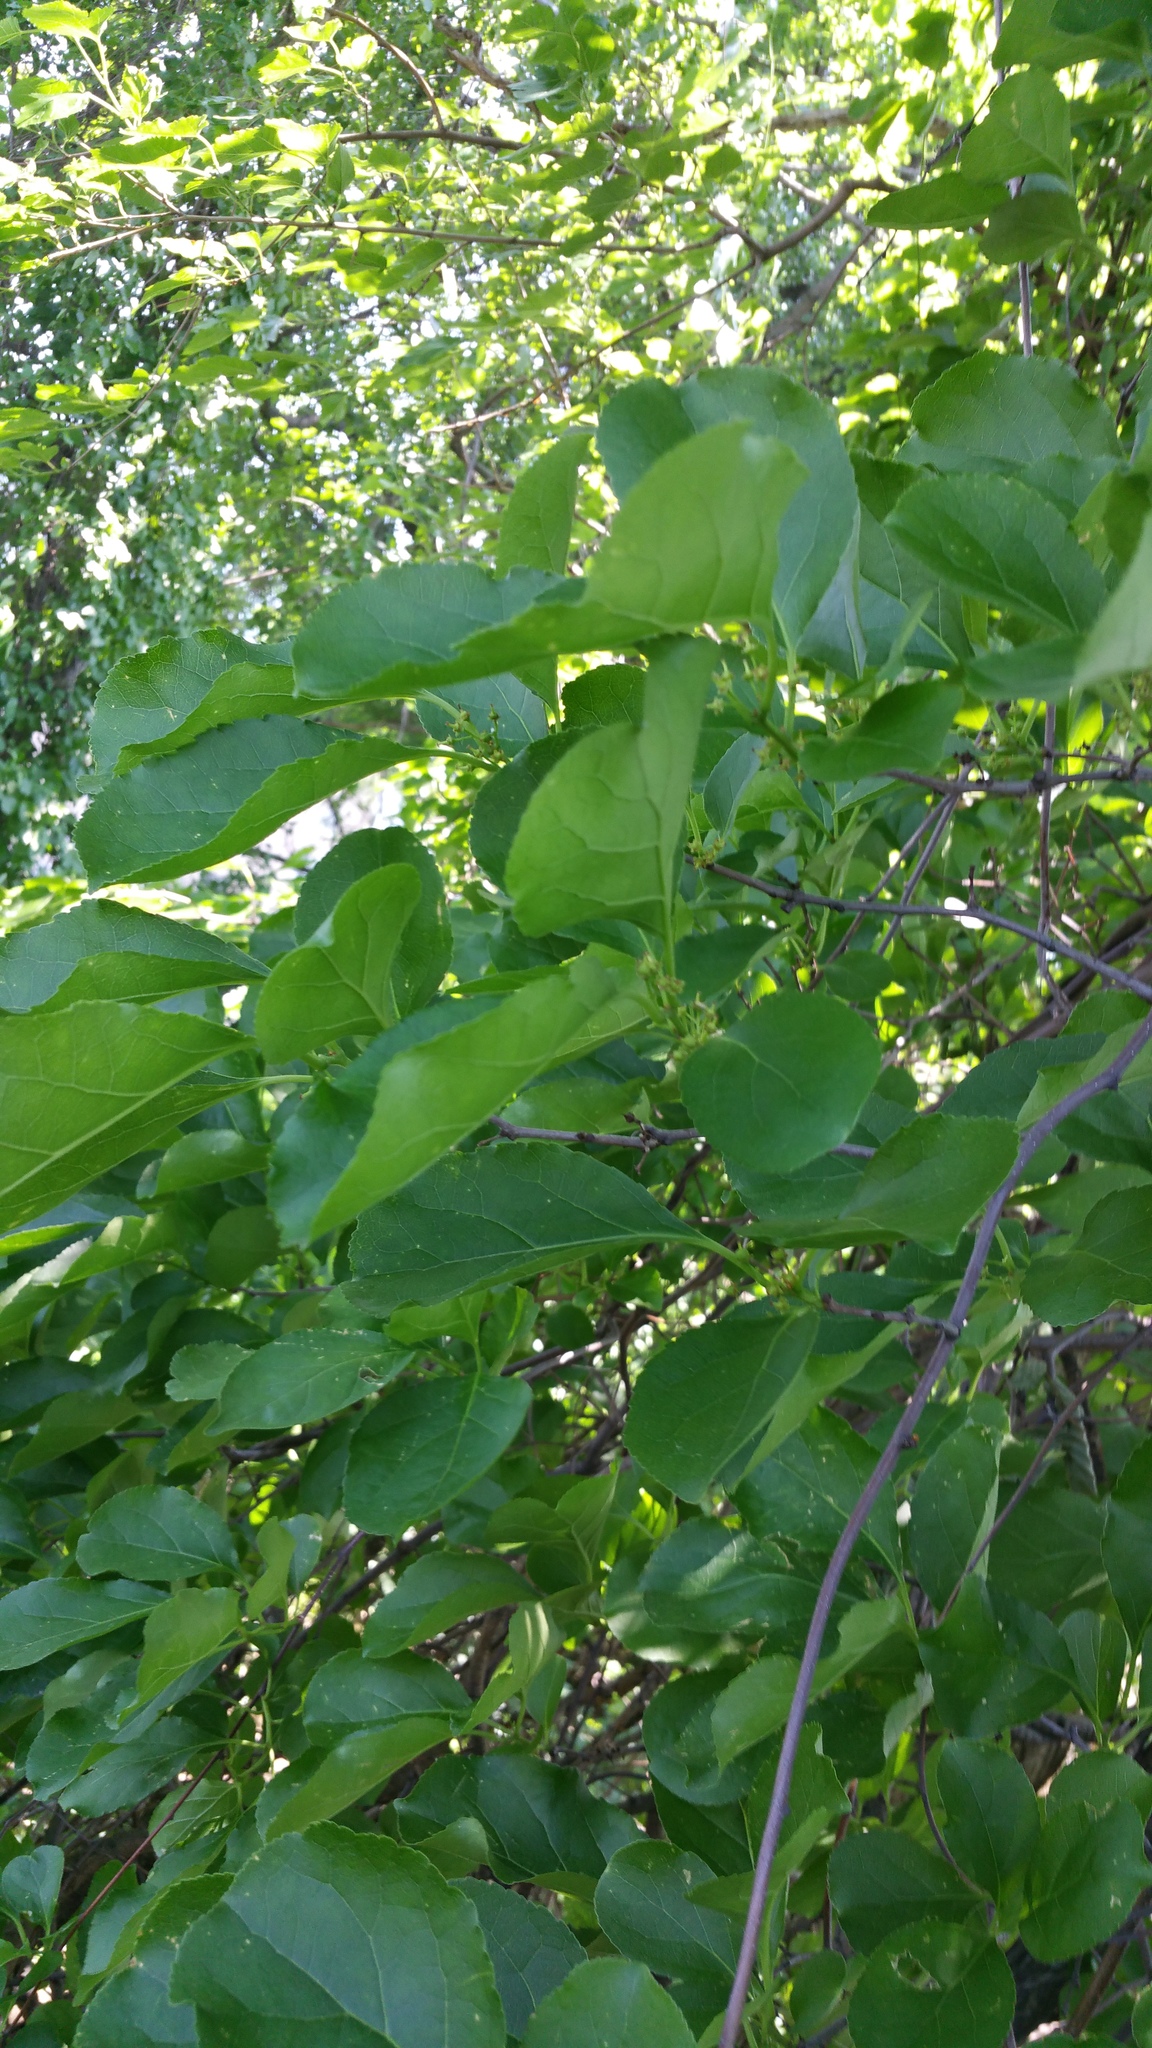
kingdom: Plantae
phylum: Tracheophyta
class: Magnoliopsida
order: Celastrales
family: Celastraceae
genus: Celastrus
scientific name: Celastrus orbiculatus
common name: Oriental bittersweet
